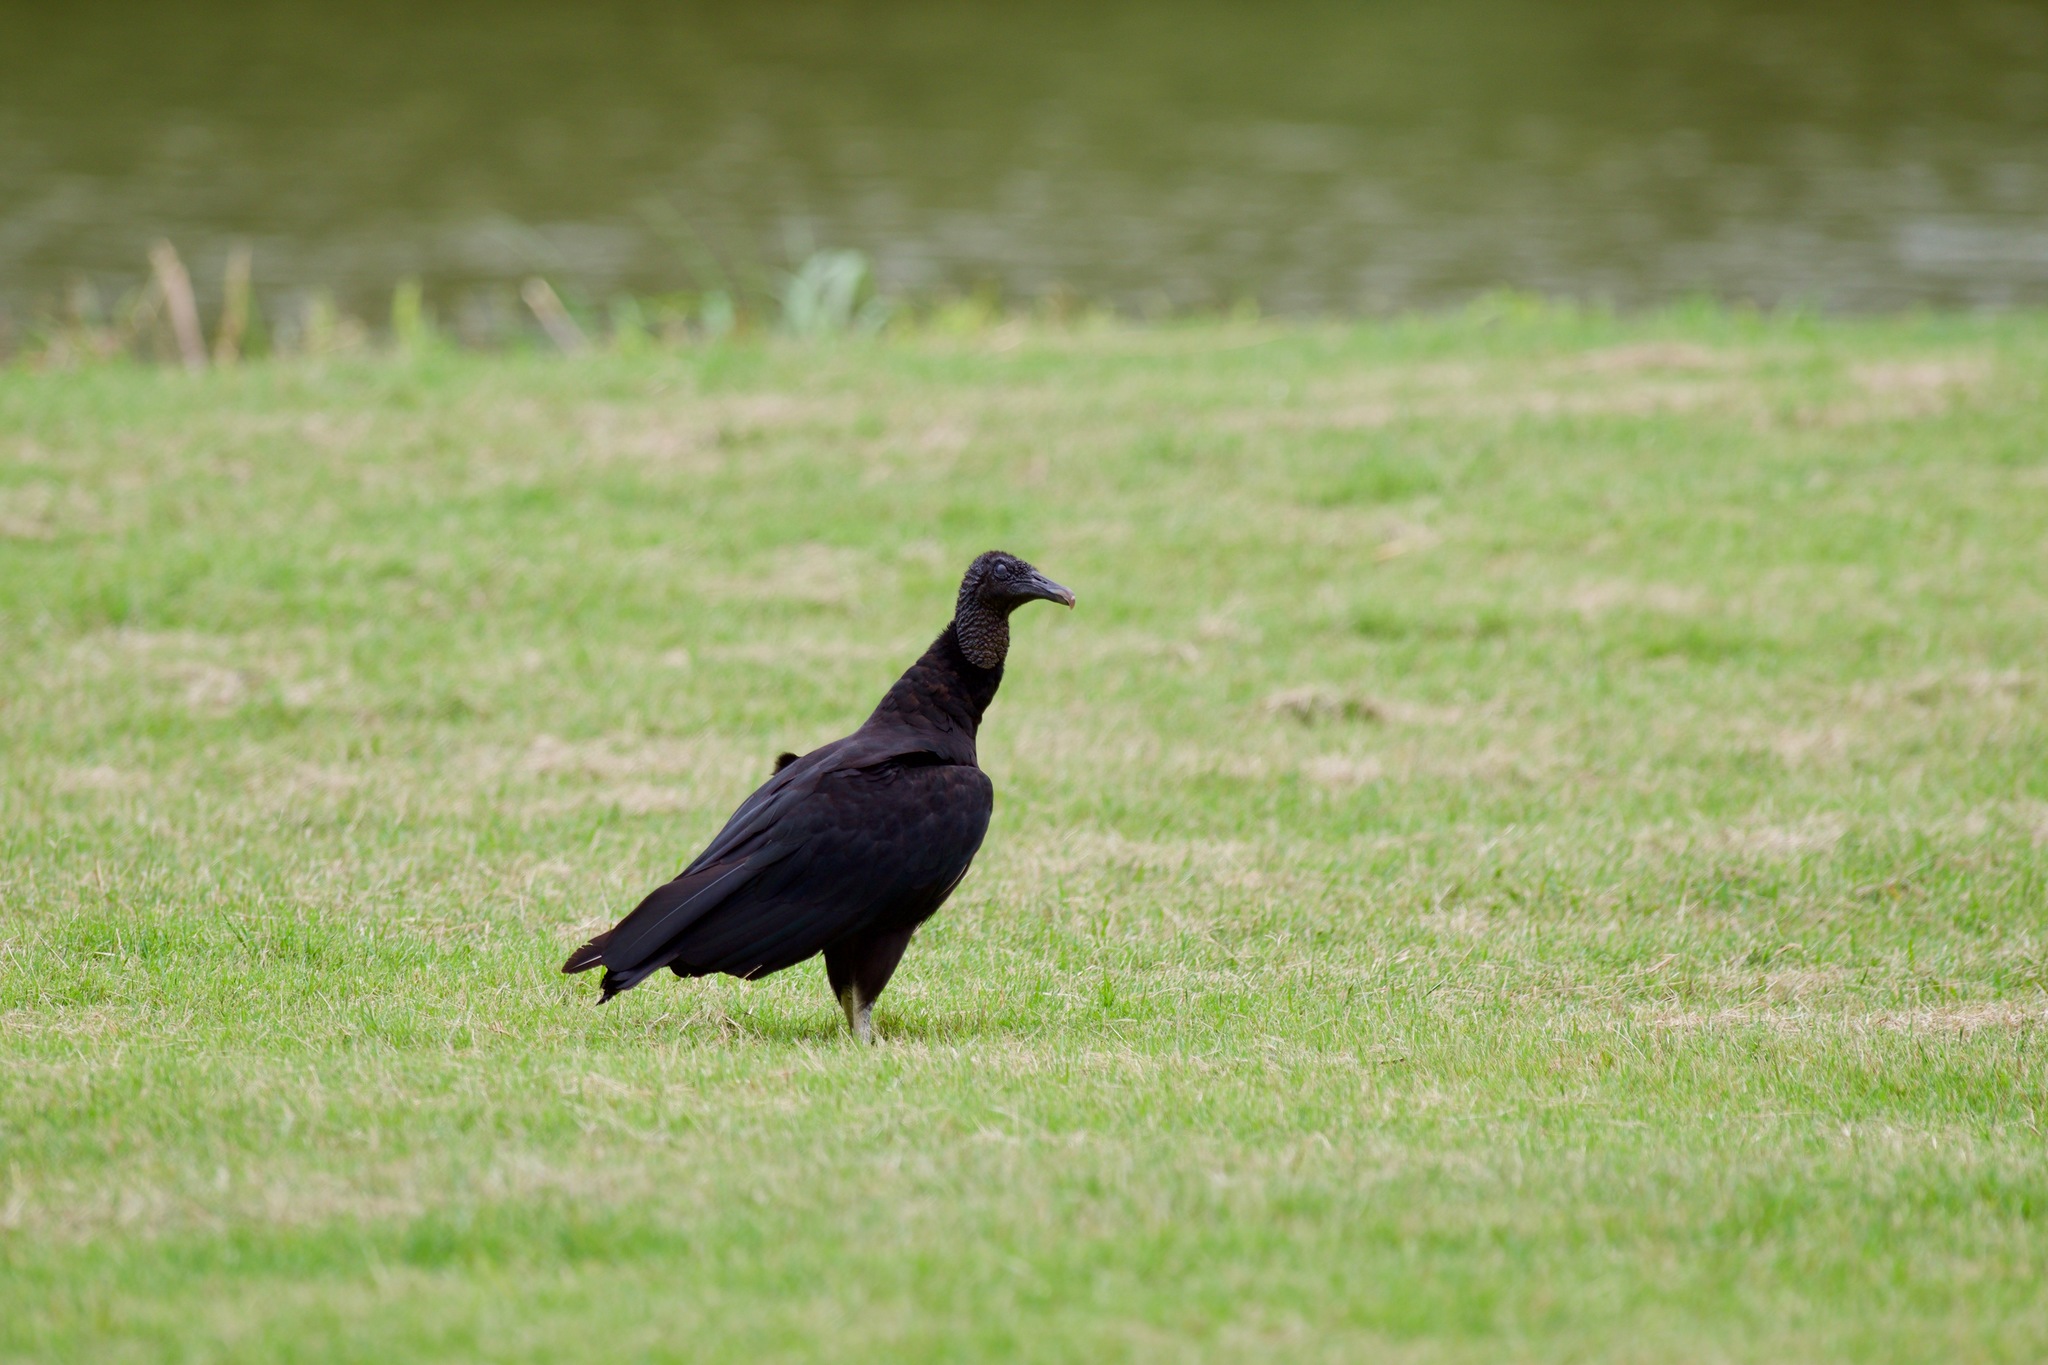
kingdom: Animalia
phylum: Chordata
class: Aves
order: Accipitriformes
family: Cathartidae
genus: Coragyps
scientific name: Coragyps atratus
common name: Black vulture
